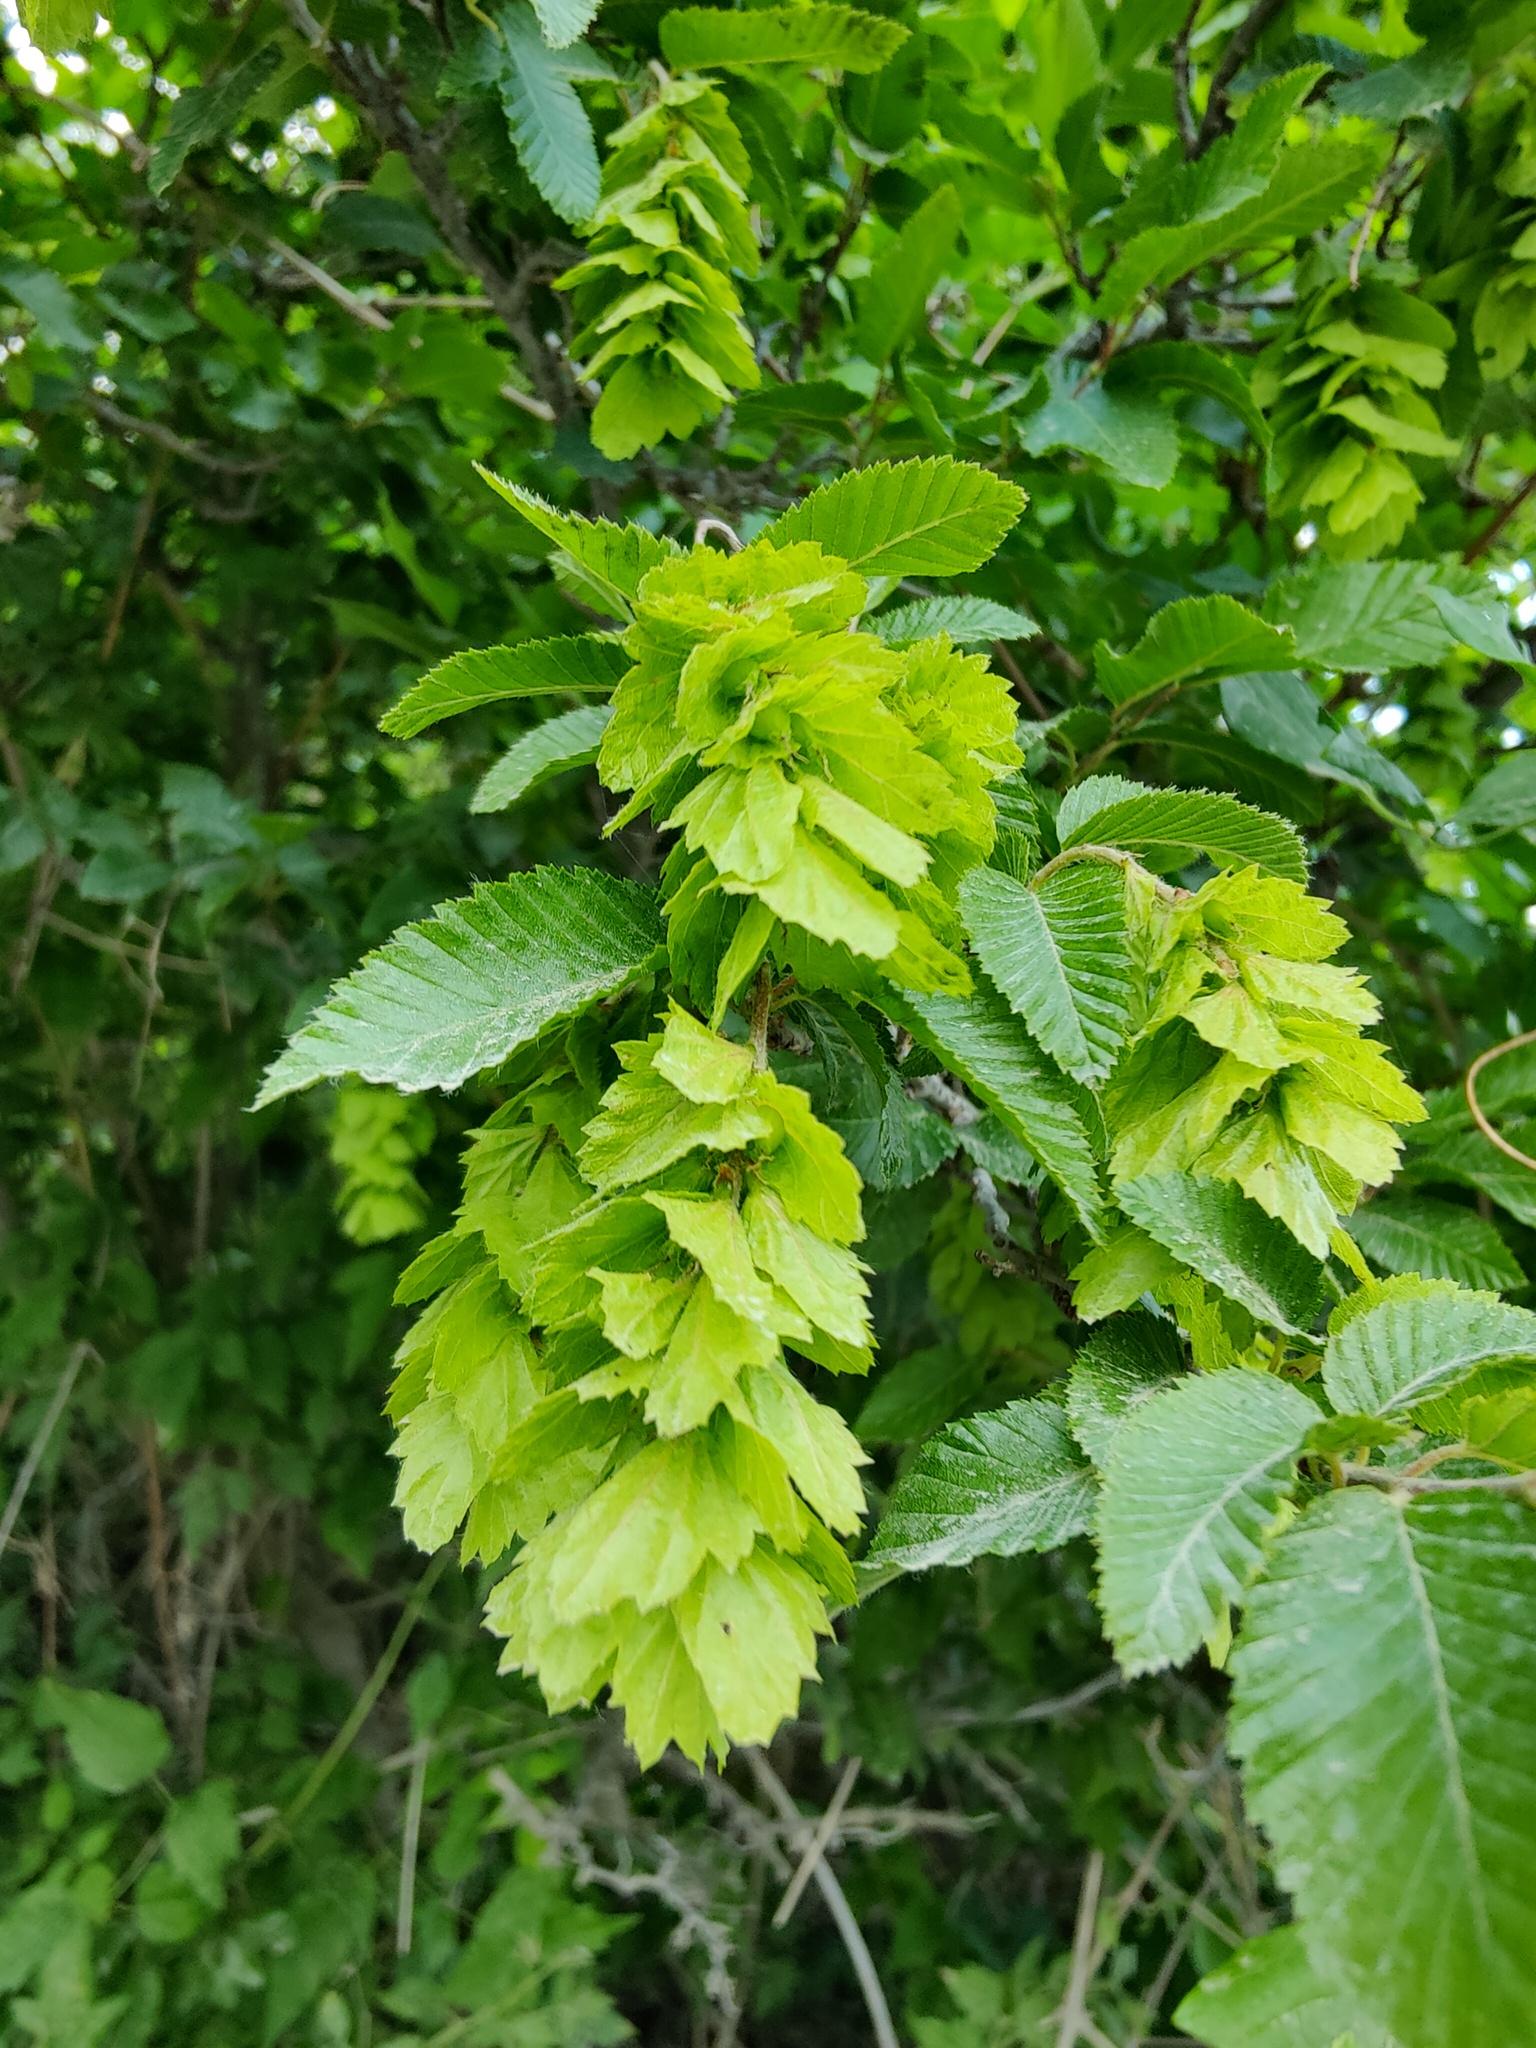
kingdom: Plantae
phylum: Tracheophyta
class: Magnoliopsida
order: Fagales
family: Betulaceae
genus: Carpinus
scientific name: Carpinus orientalis
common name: Eastern hornbeam
